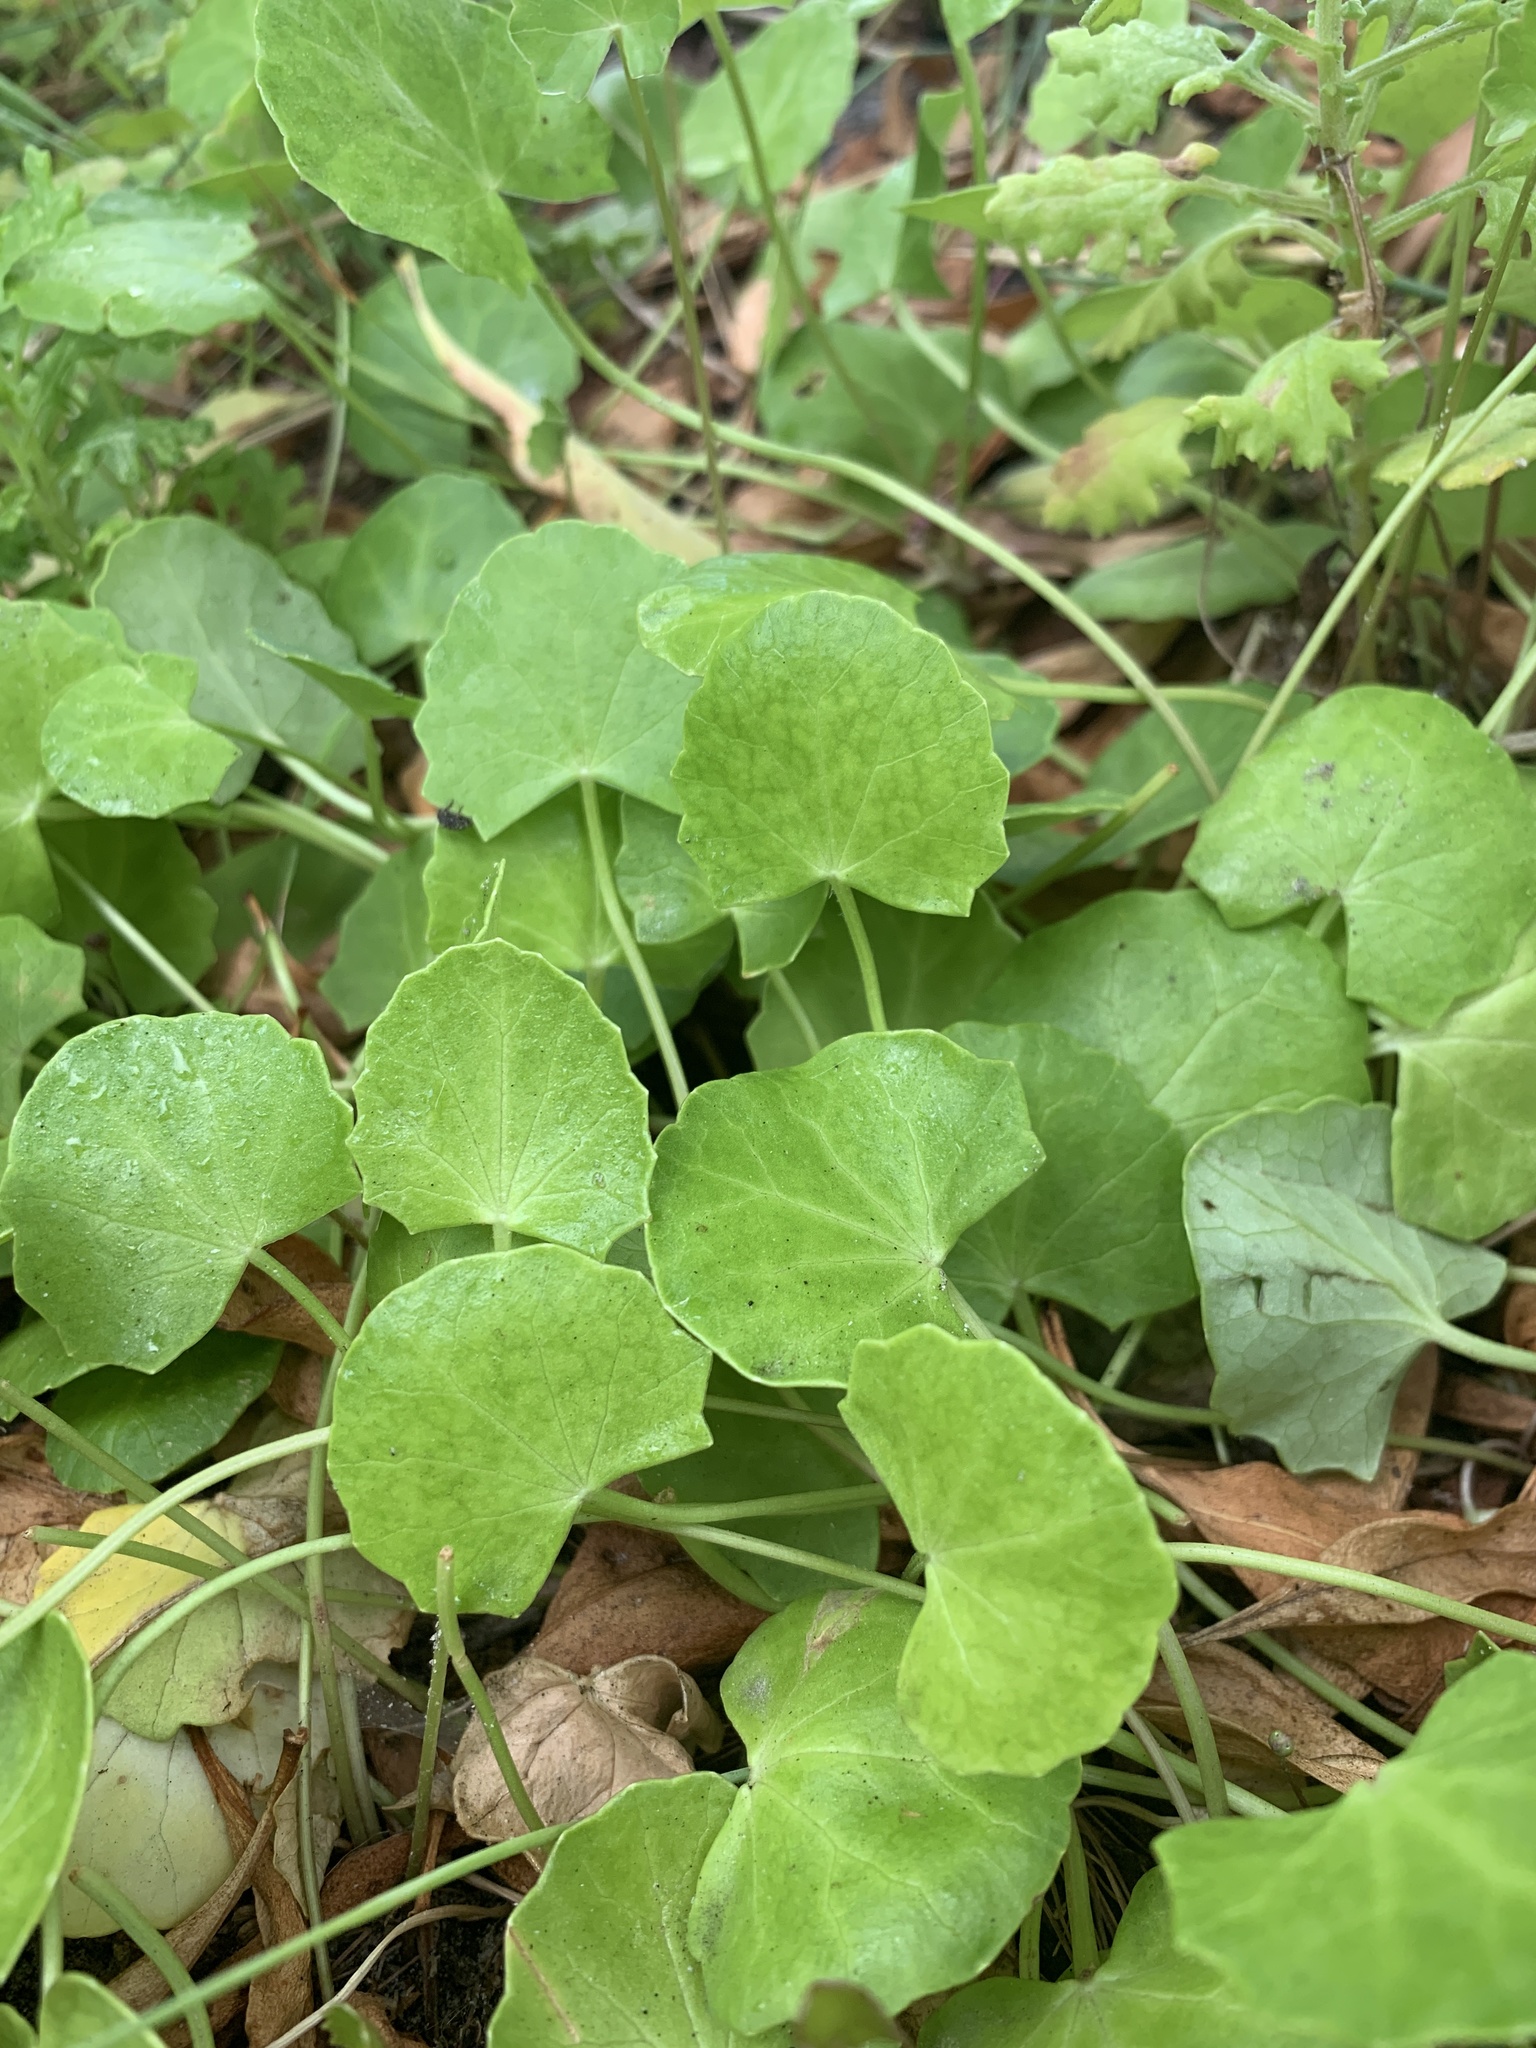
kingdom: Plantae
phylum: Tracheophyta
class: Magnoliopsida
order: Apiales
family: Apiaceae
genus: Centella
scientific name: Centella asiatica
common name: Spadeleaf
